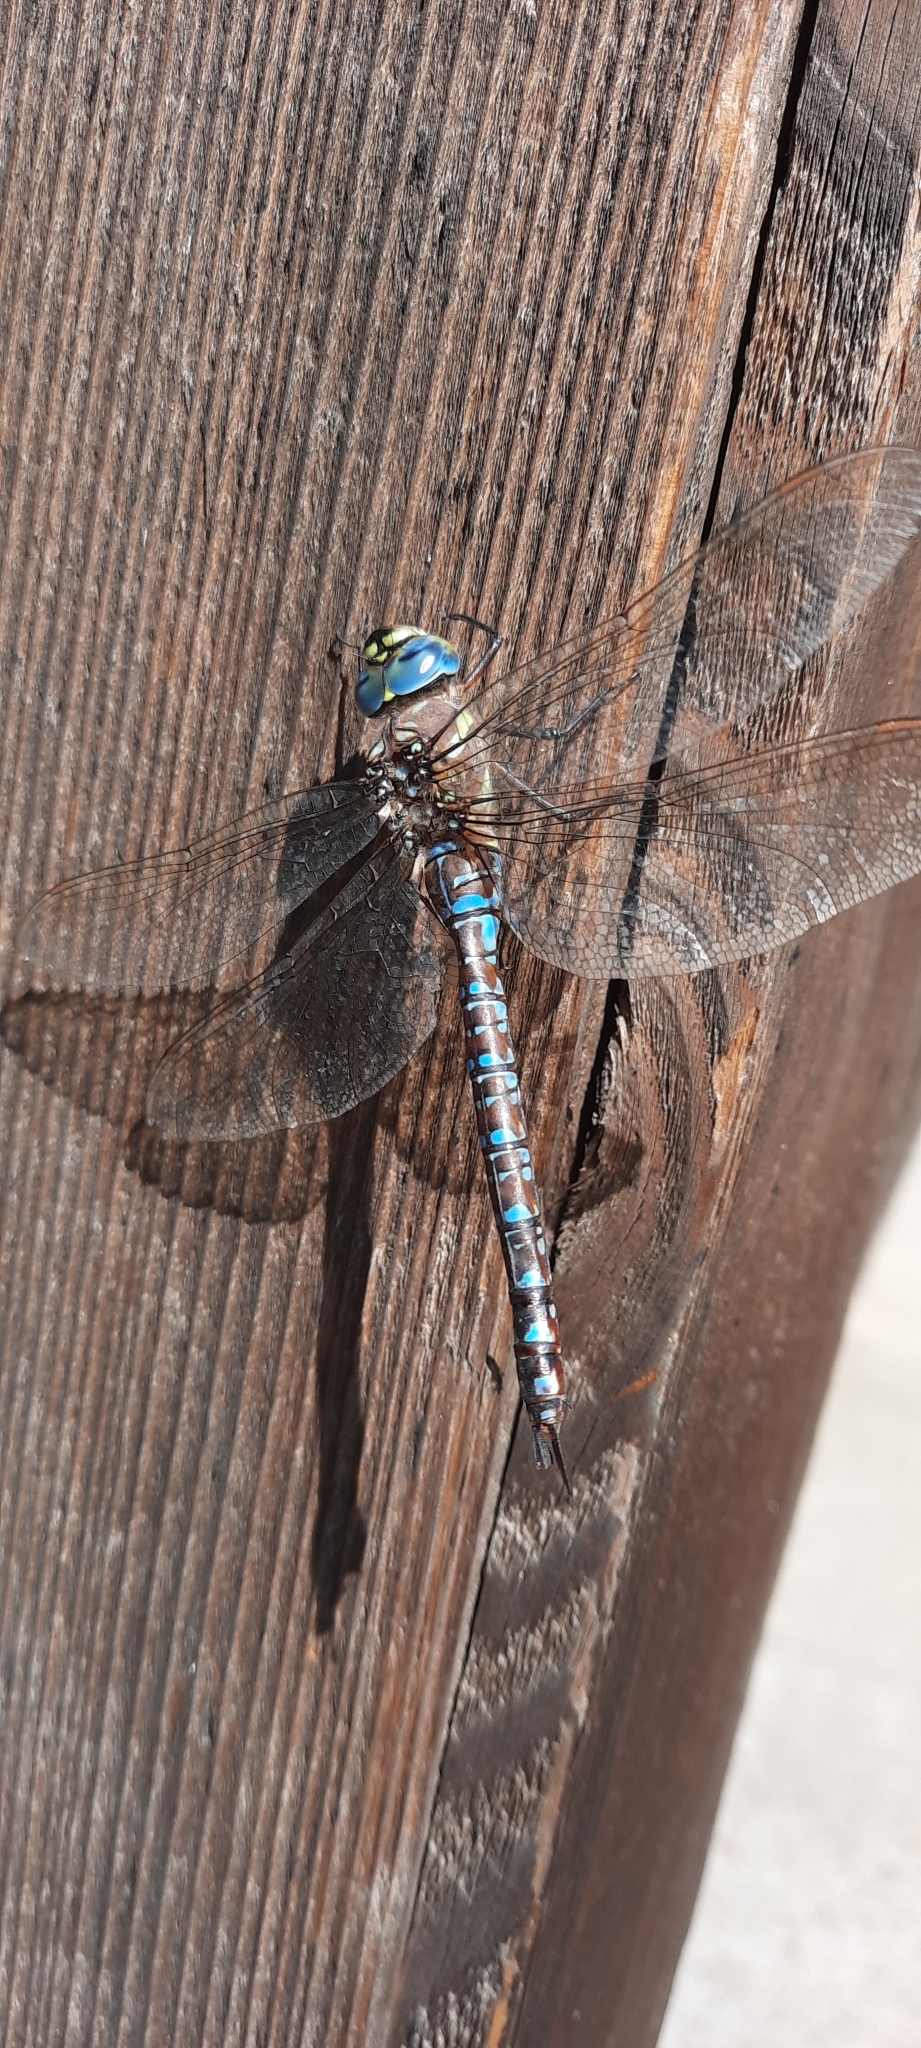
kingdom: Animalia
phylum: Arthropoda
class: Insecta
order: Odonata
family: Aeshnidae
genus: Aeshna
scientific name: Aeshna palmata
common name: Paddle-tailed darner
